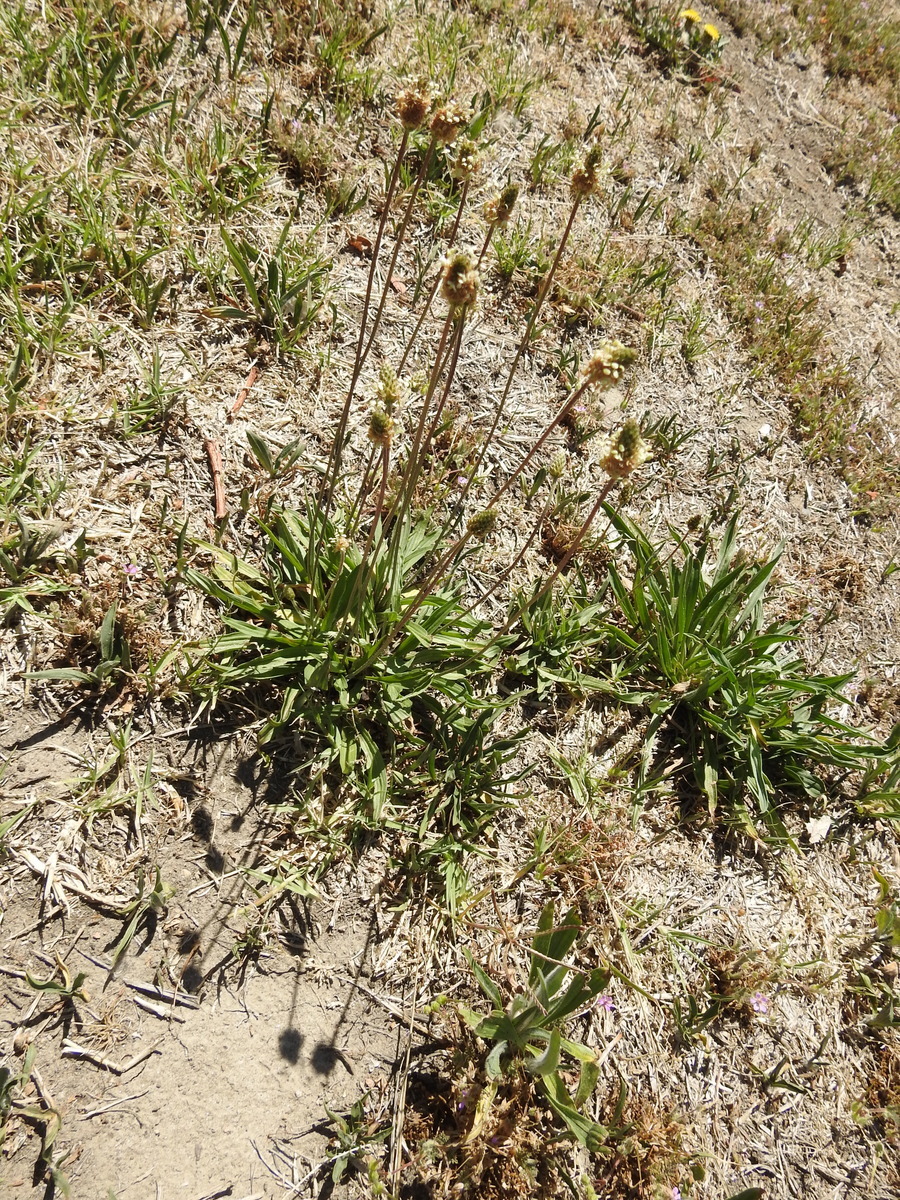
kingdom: Plantae
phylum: Tracheophyta
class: Magnoliopsida
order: Lamiales
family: Plantaginaceae
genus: Plantago
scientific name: Plantago lanceolata
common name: Ribwort plantain
